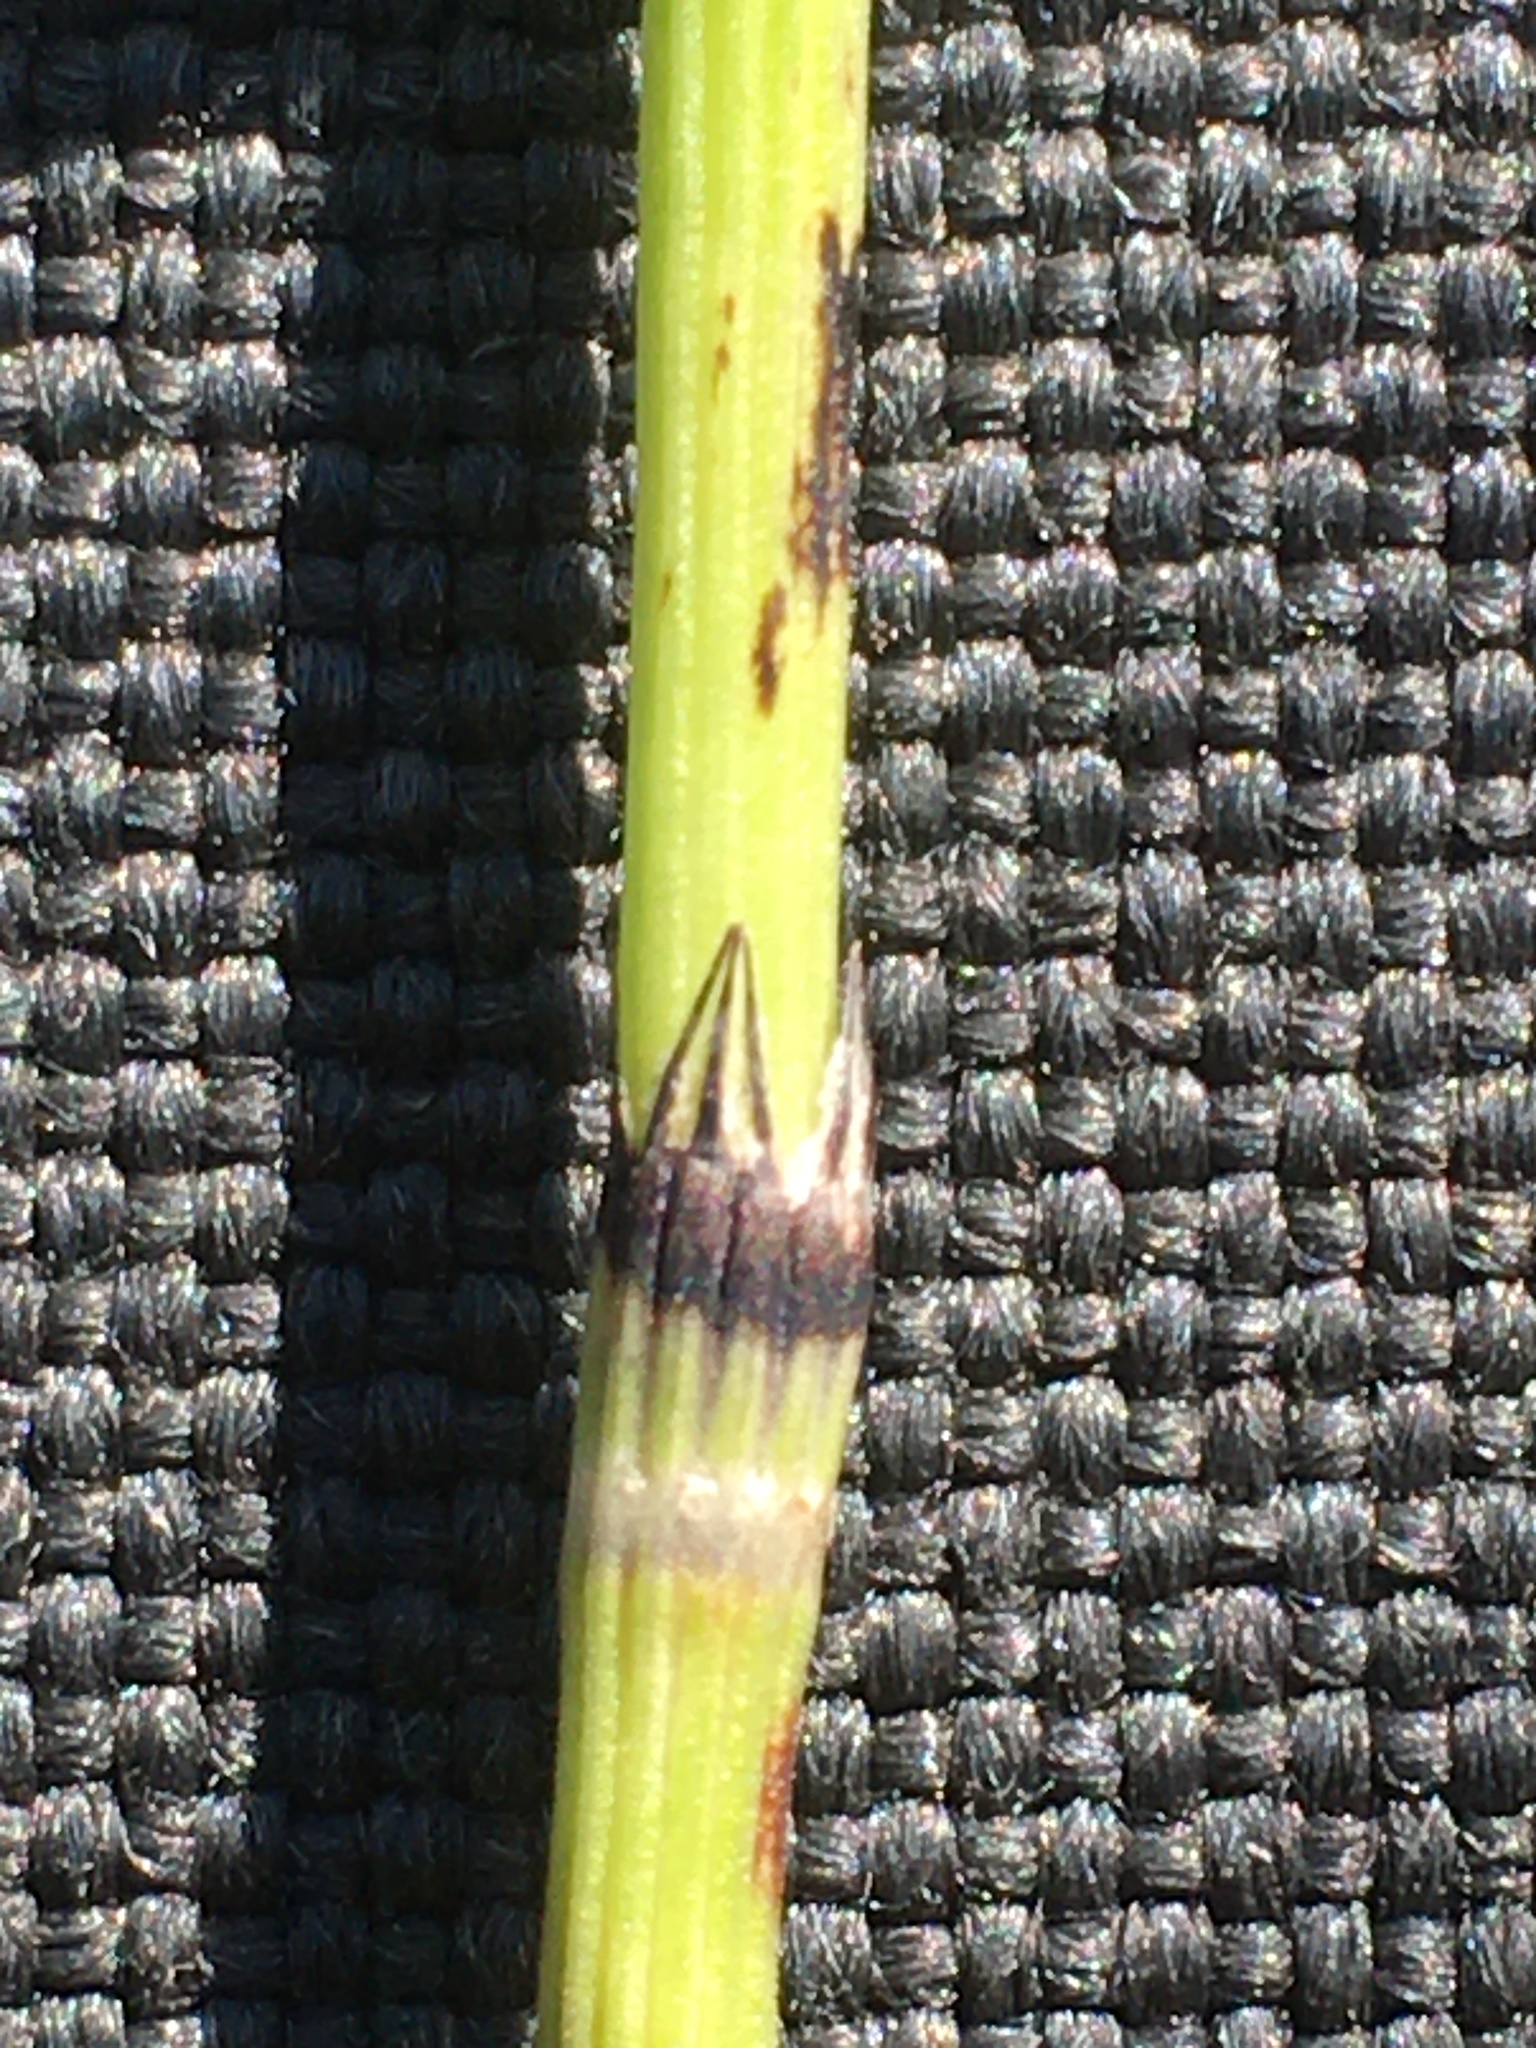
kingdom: Plantae
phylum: Tracheophyta
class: Polypodiopsida
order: Equisetales
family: Equisetaceae
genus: Equisetum
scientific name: Equisetum arvense
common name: Field horsetail
